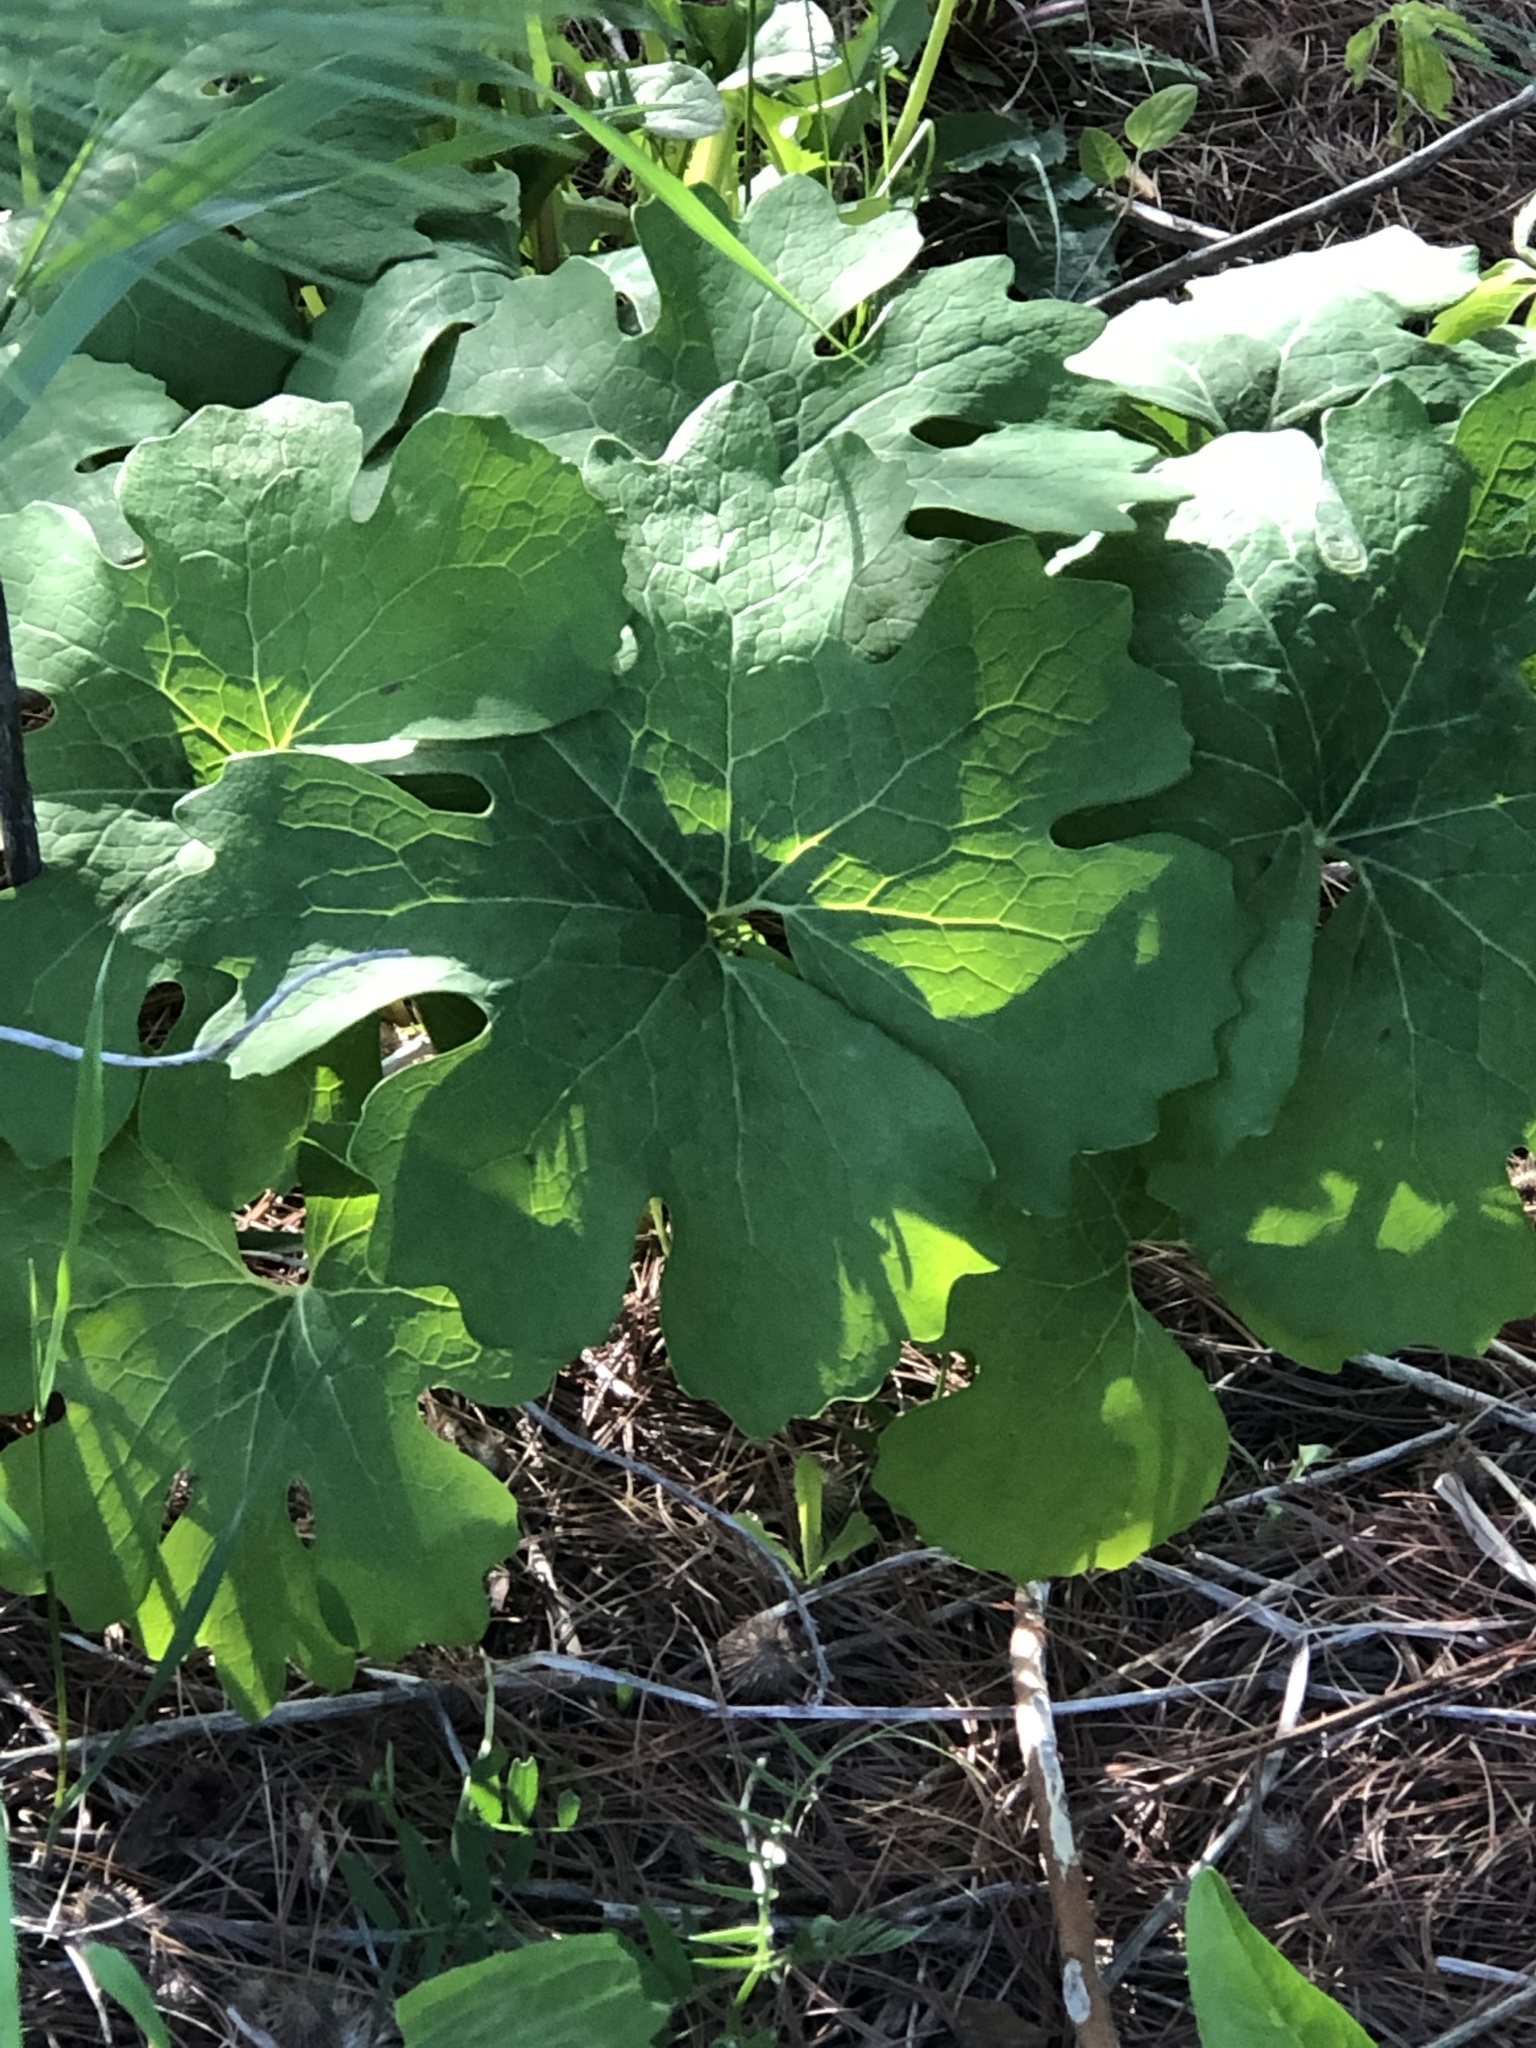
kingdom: Plantae
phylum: Tracheophyta
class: Magnoliopsida
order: Ranunculales
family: Papaveraceae
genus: Sanguinaria
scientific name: Sanguinaria canadensis
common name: Bloodroot
